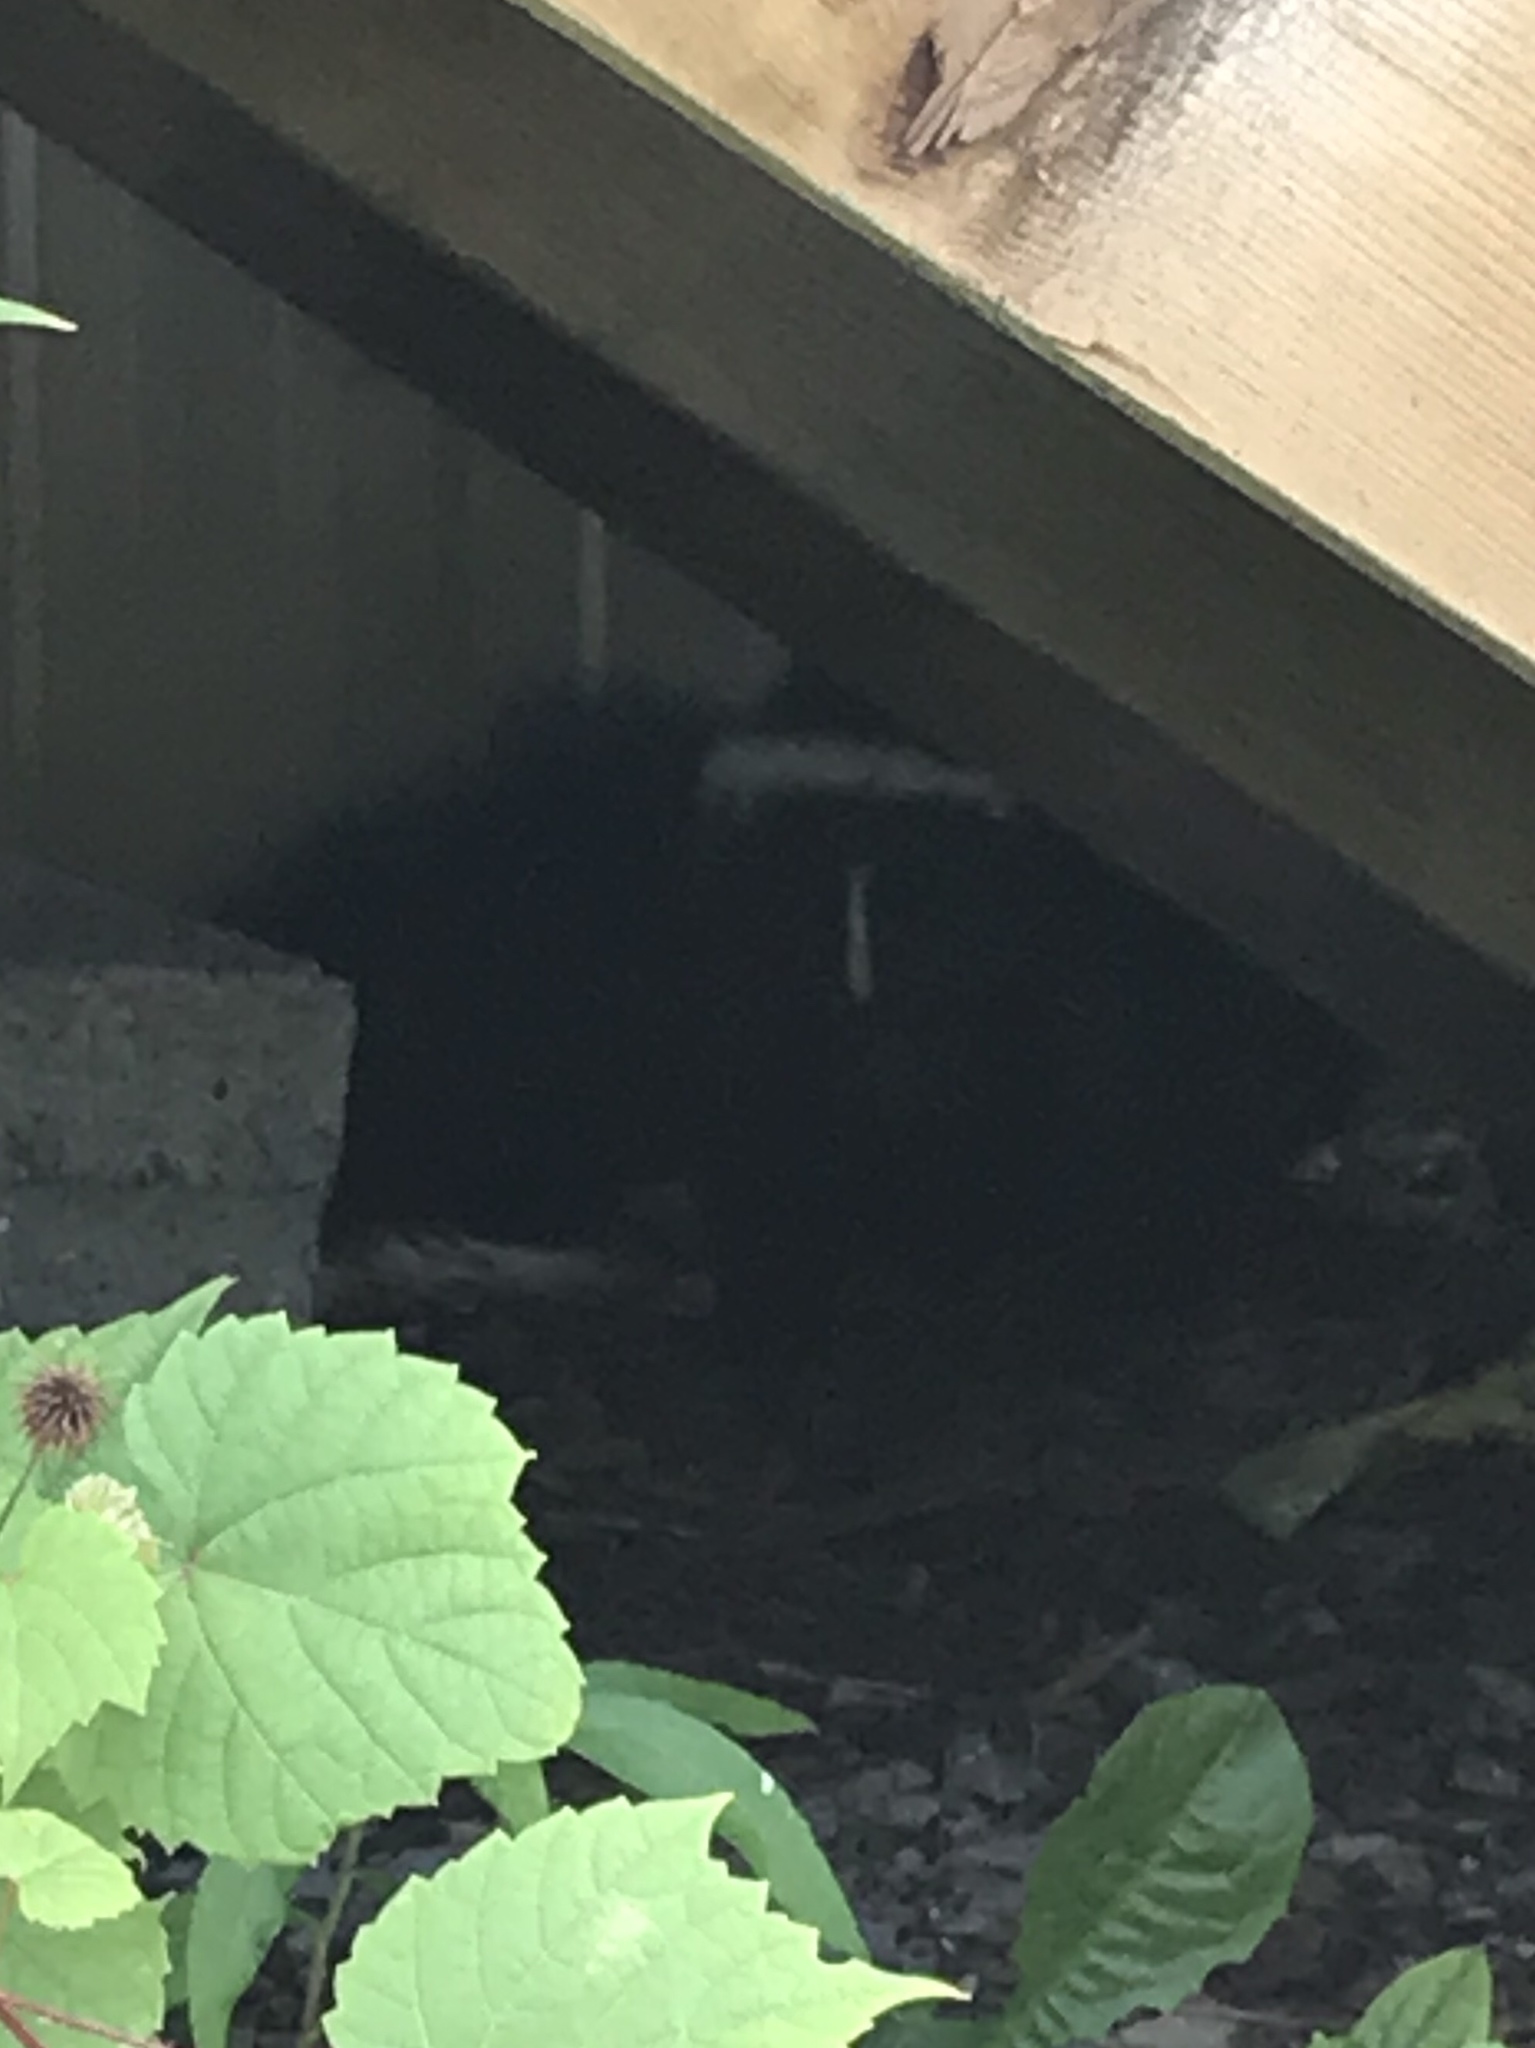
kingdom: Animalia
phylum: Chordata
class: Mammalia
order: Carnivora
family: Mephitidae
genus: Mephitis
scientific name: Mephitis mephitis
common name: Striped skunk
